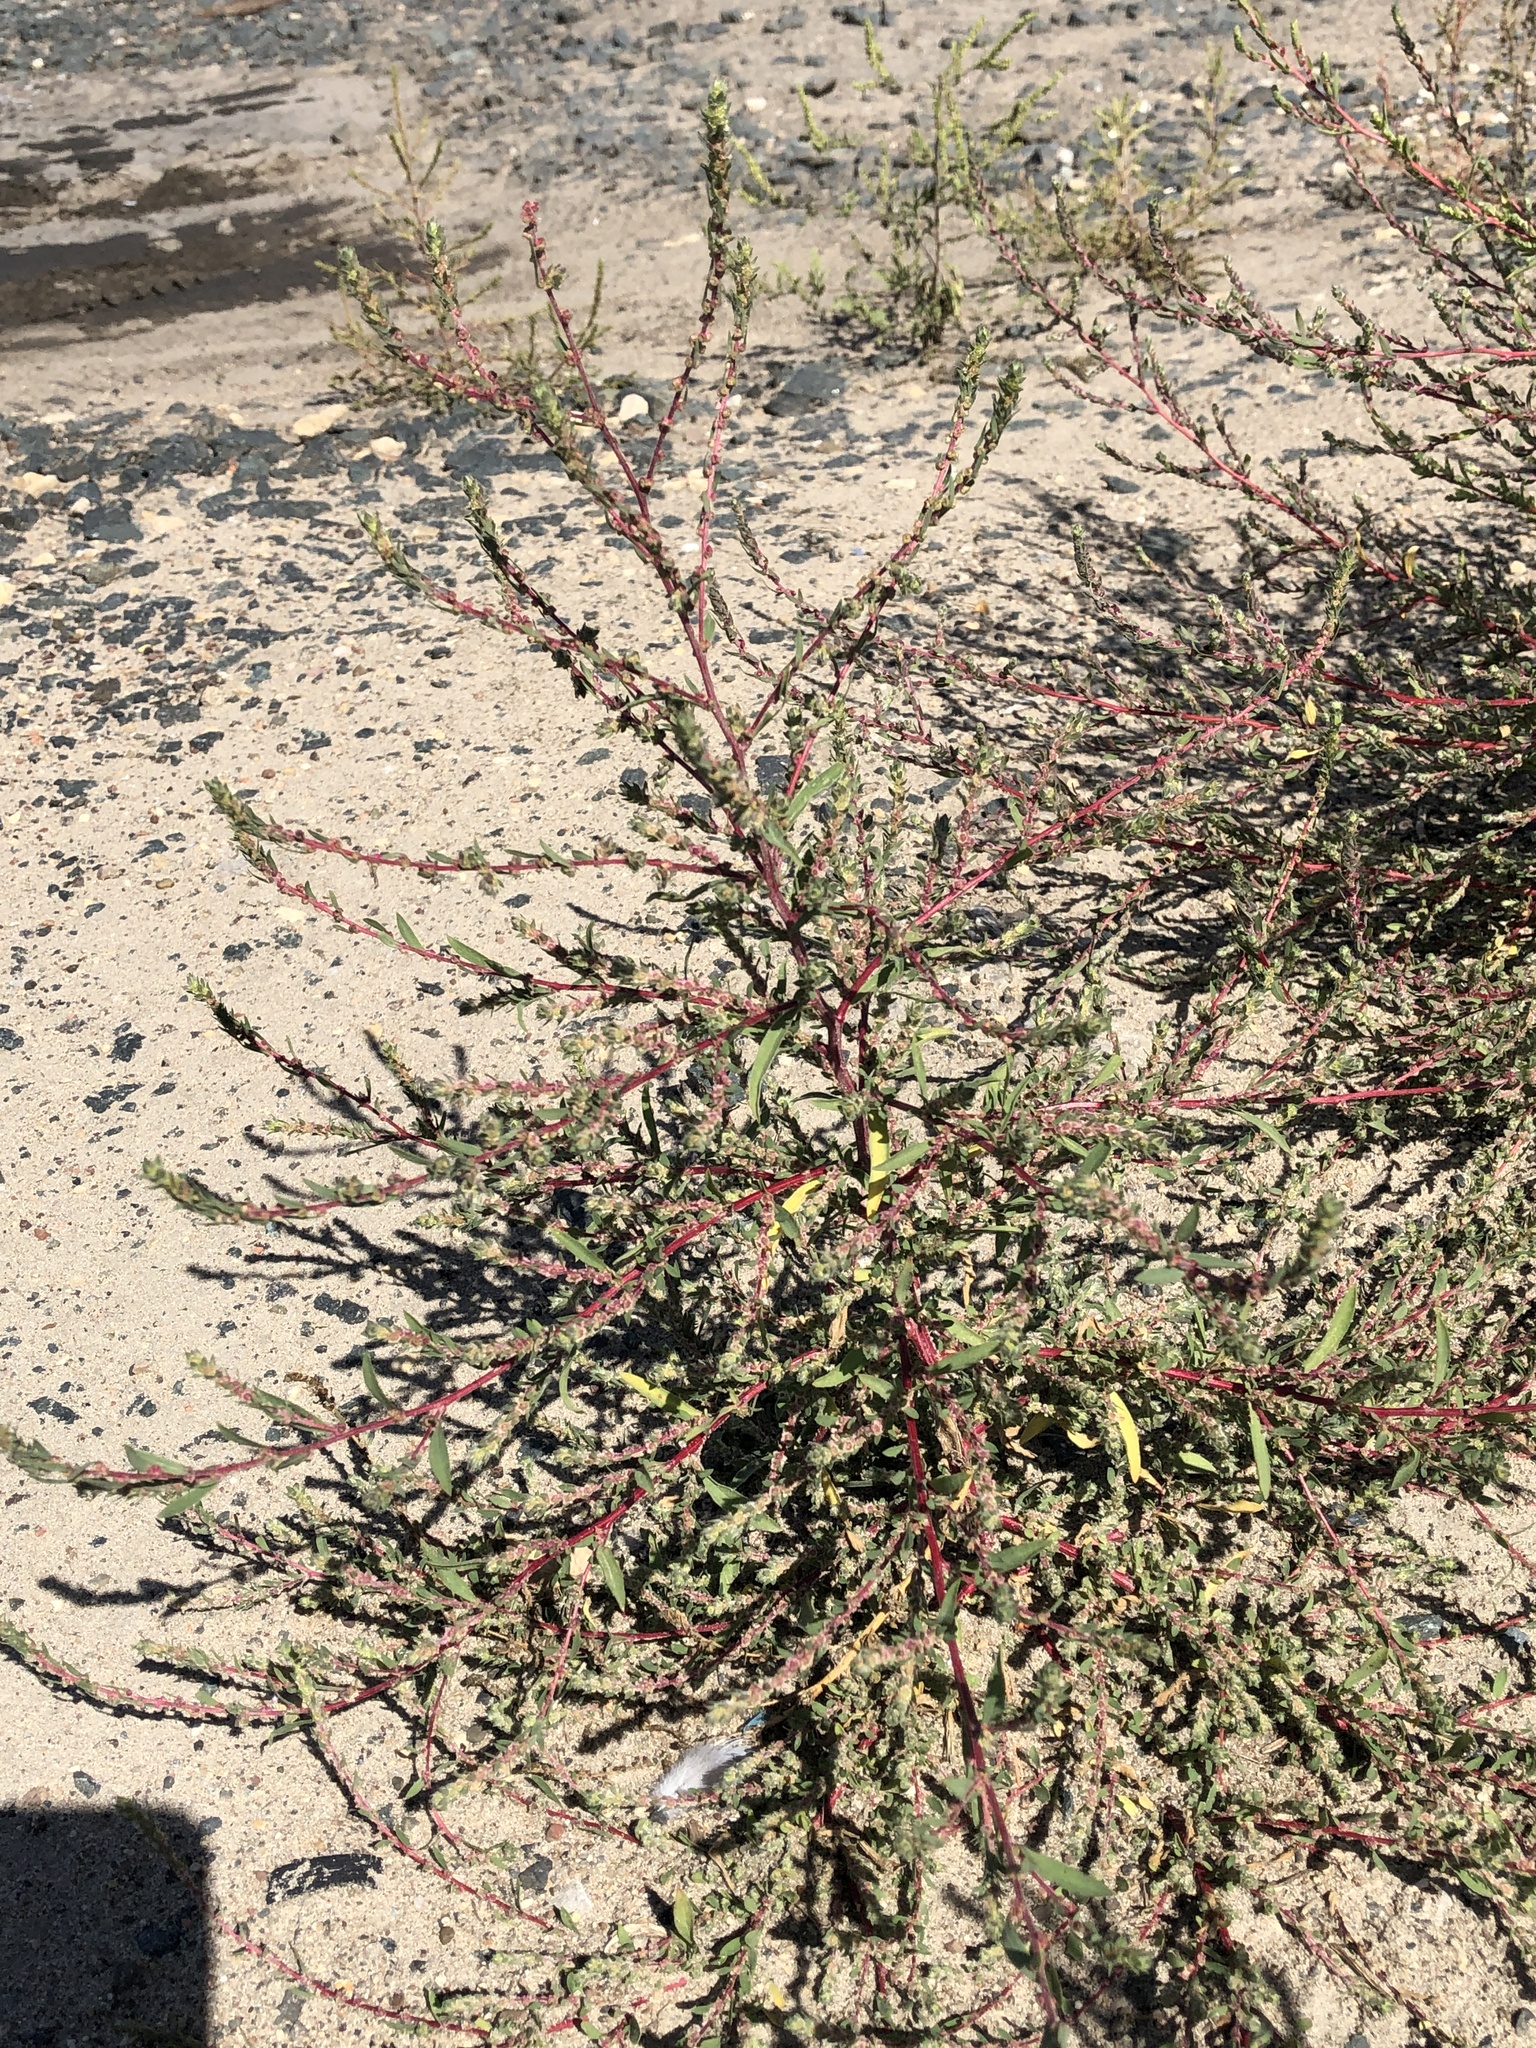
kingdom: Plantae
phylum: Tracheophyta
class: Magnoliopsida
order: Caryophyllales
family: Amaranthaceae
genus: Bassia
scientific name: Bassia scoparia
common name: Belvedere
